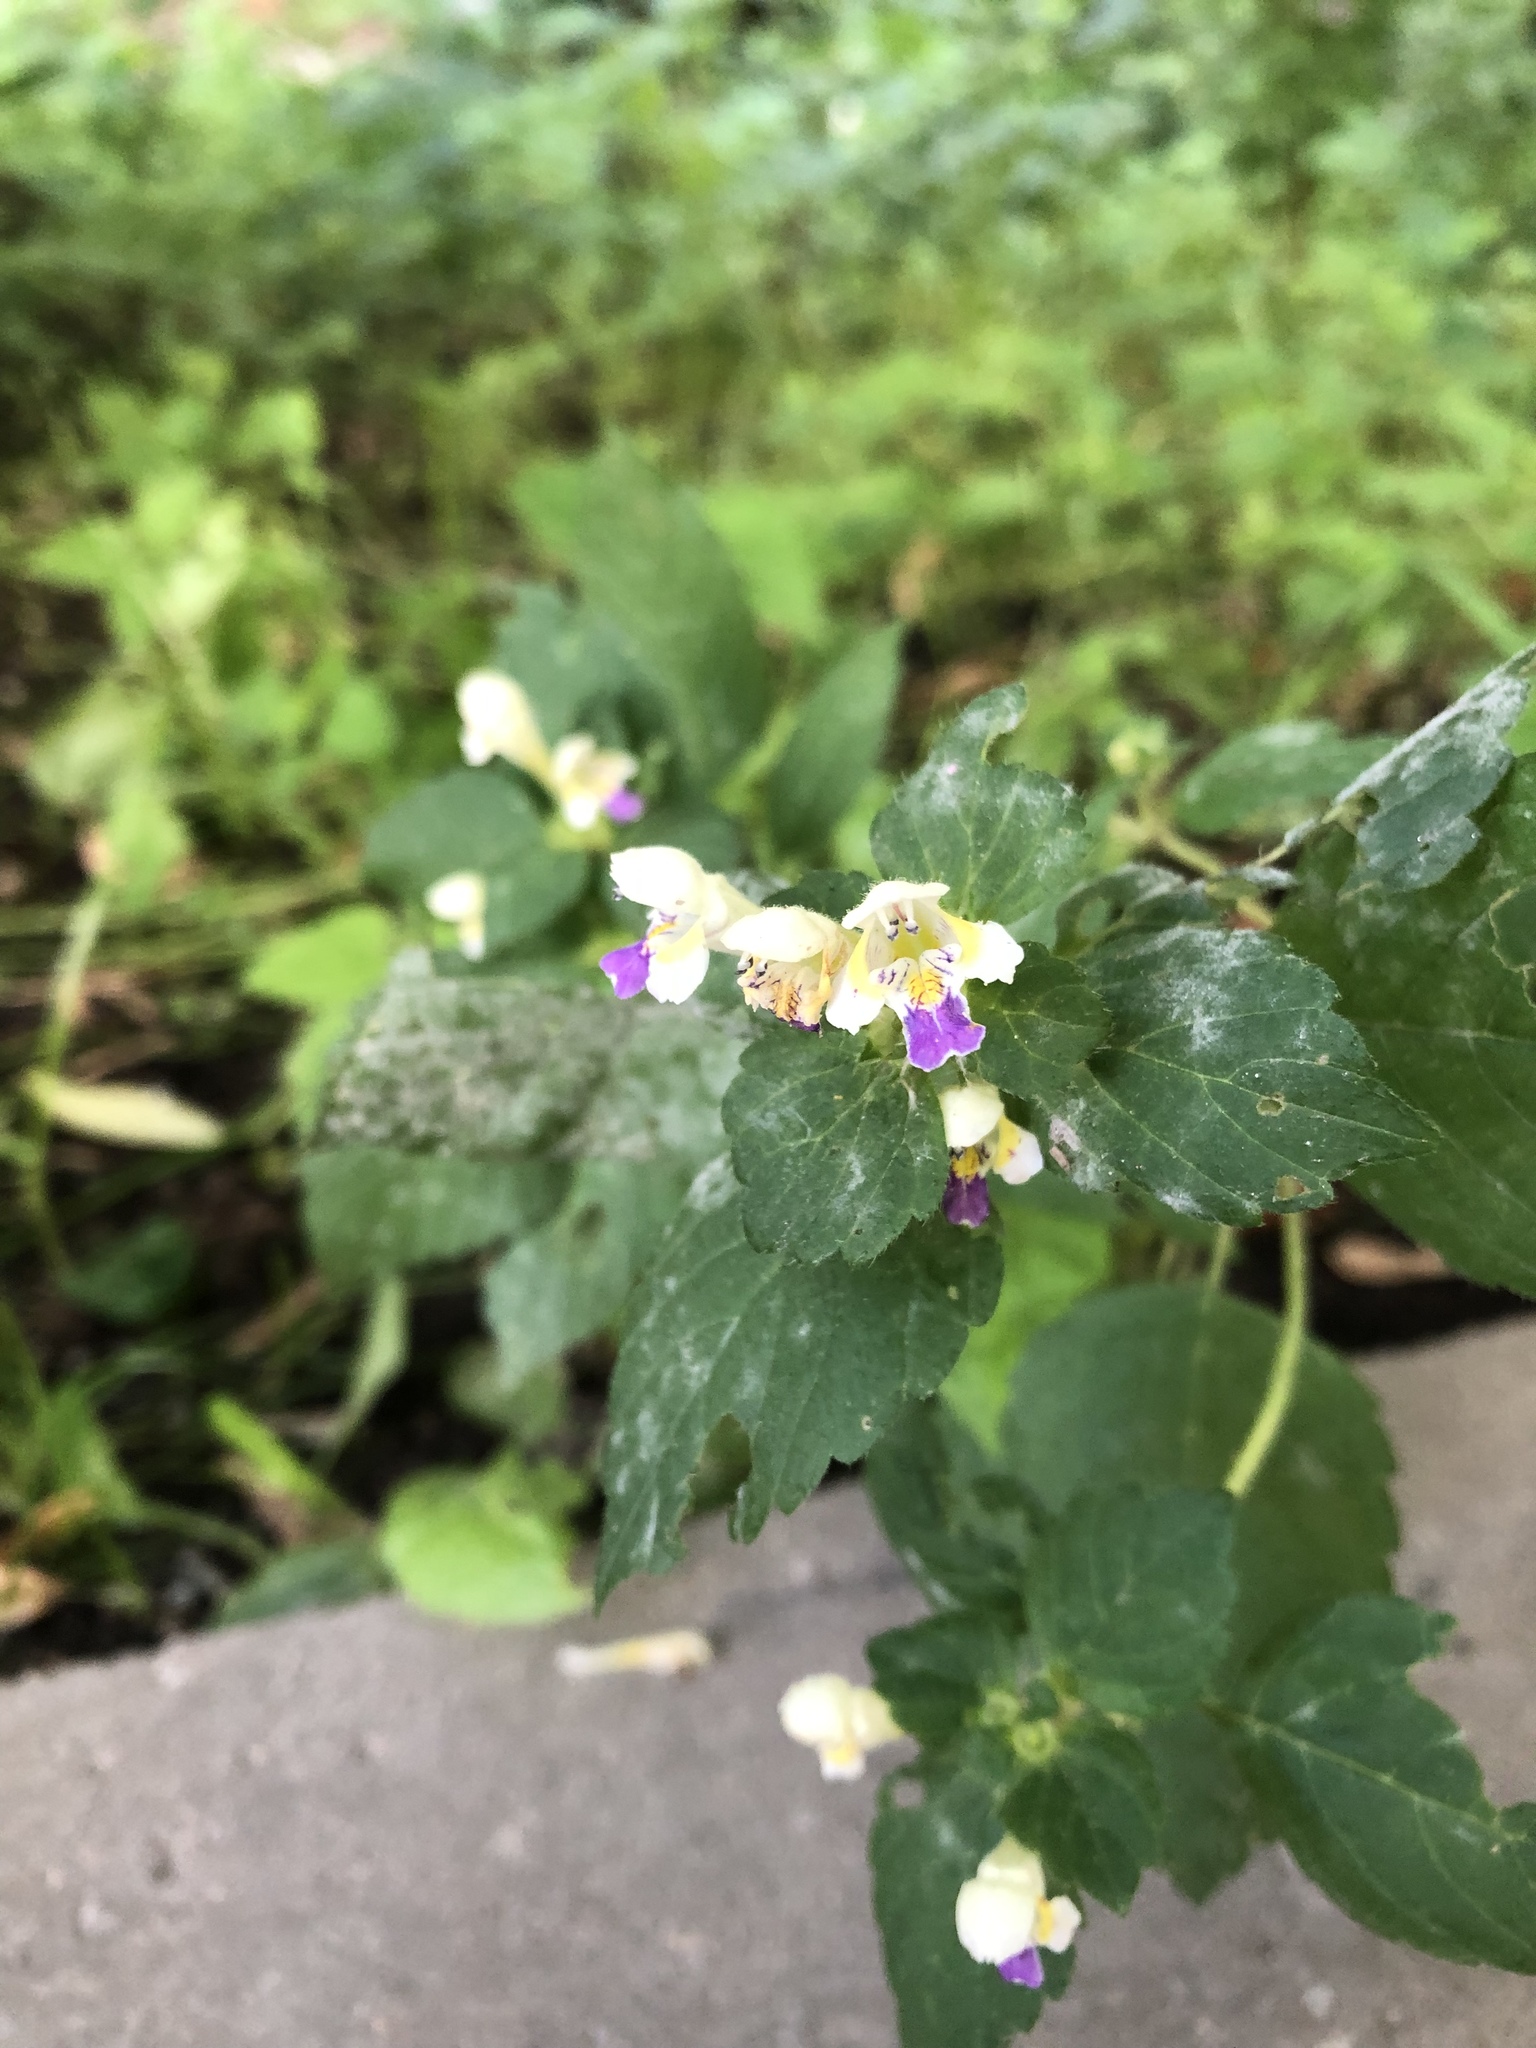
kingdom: Plantae
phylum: Tracheophyta
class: Magnoliopsida
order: Lamiales
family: Lamiaceae
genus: Galeopsis
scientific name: Galeopsis speciosa
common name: Large-flowered hemp-nettle
